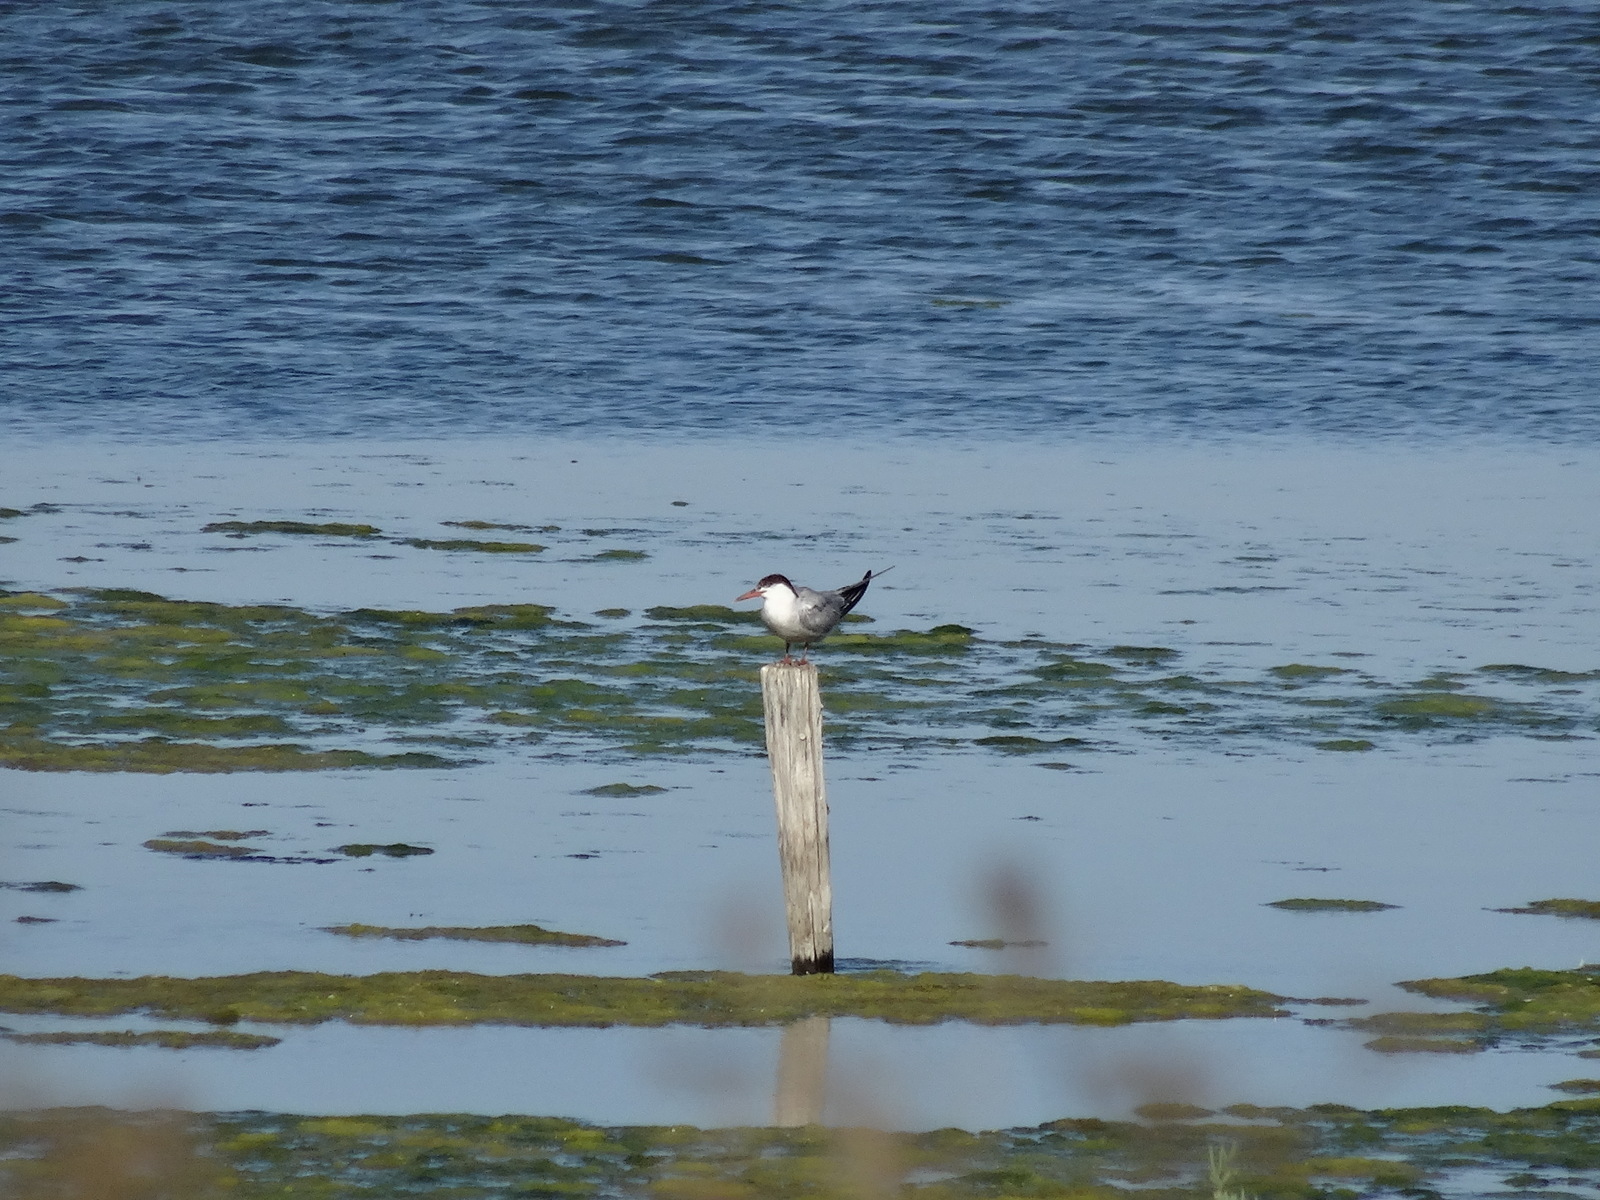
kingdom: Animalia
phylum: Chordata
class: Aves
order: Charadriiformes
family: Laridae
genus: Sterna
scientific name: Sterna hirundo
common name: Common tern
